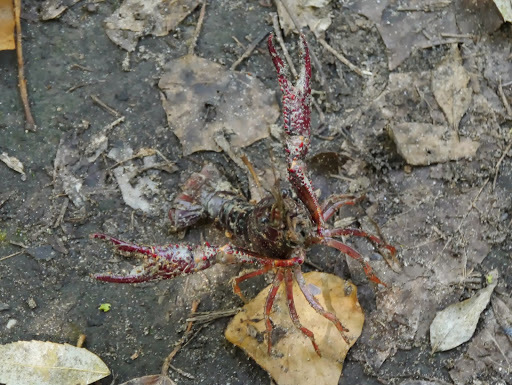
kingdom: Animalia
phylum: Arthropoda
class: Malacostraca
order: Decapoda
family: Cambaridae
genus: Procambarus
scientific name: Procambarus clarkii
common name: Red swamp crayfish
